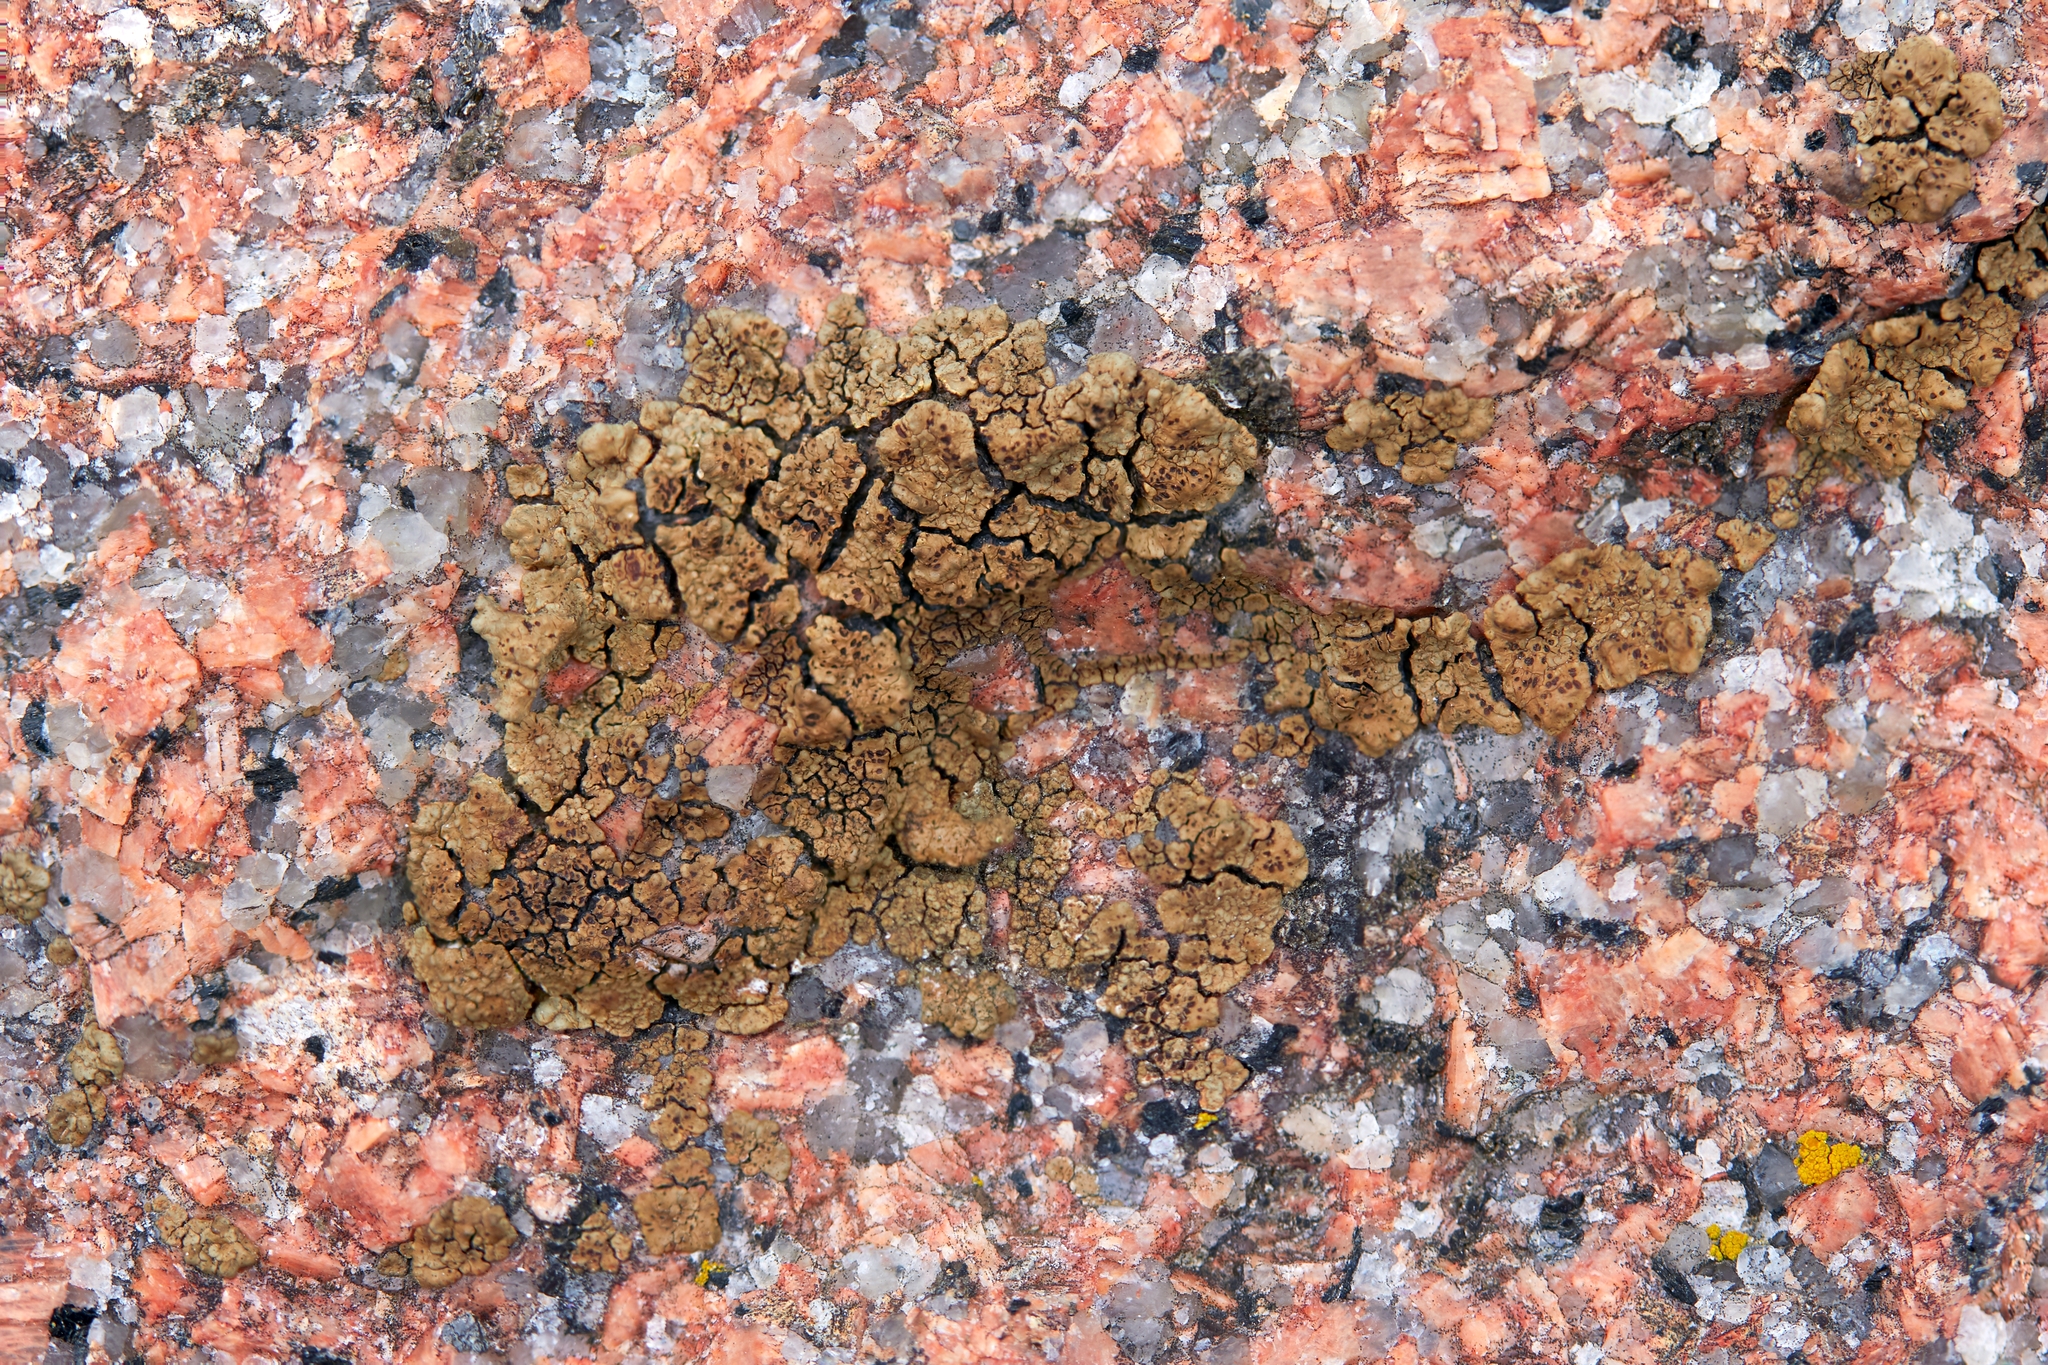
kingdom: Fungi
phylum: Ascomycota
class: Lecanoromycetes
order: Acarosporales
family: Acarosporaceae
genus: Acarospora
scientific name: Acarospora fuscata
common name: Brown cobblestone lichen
